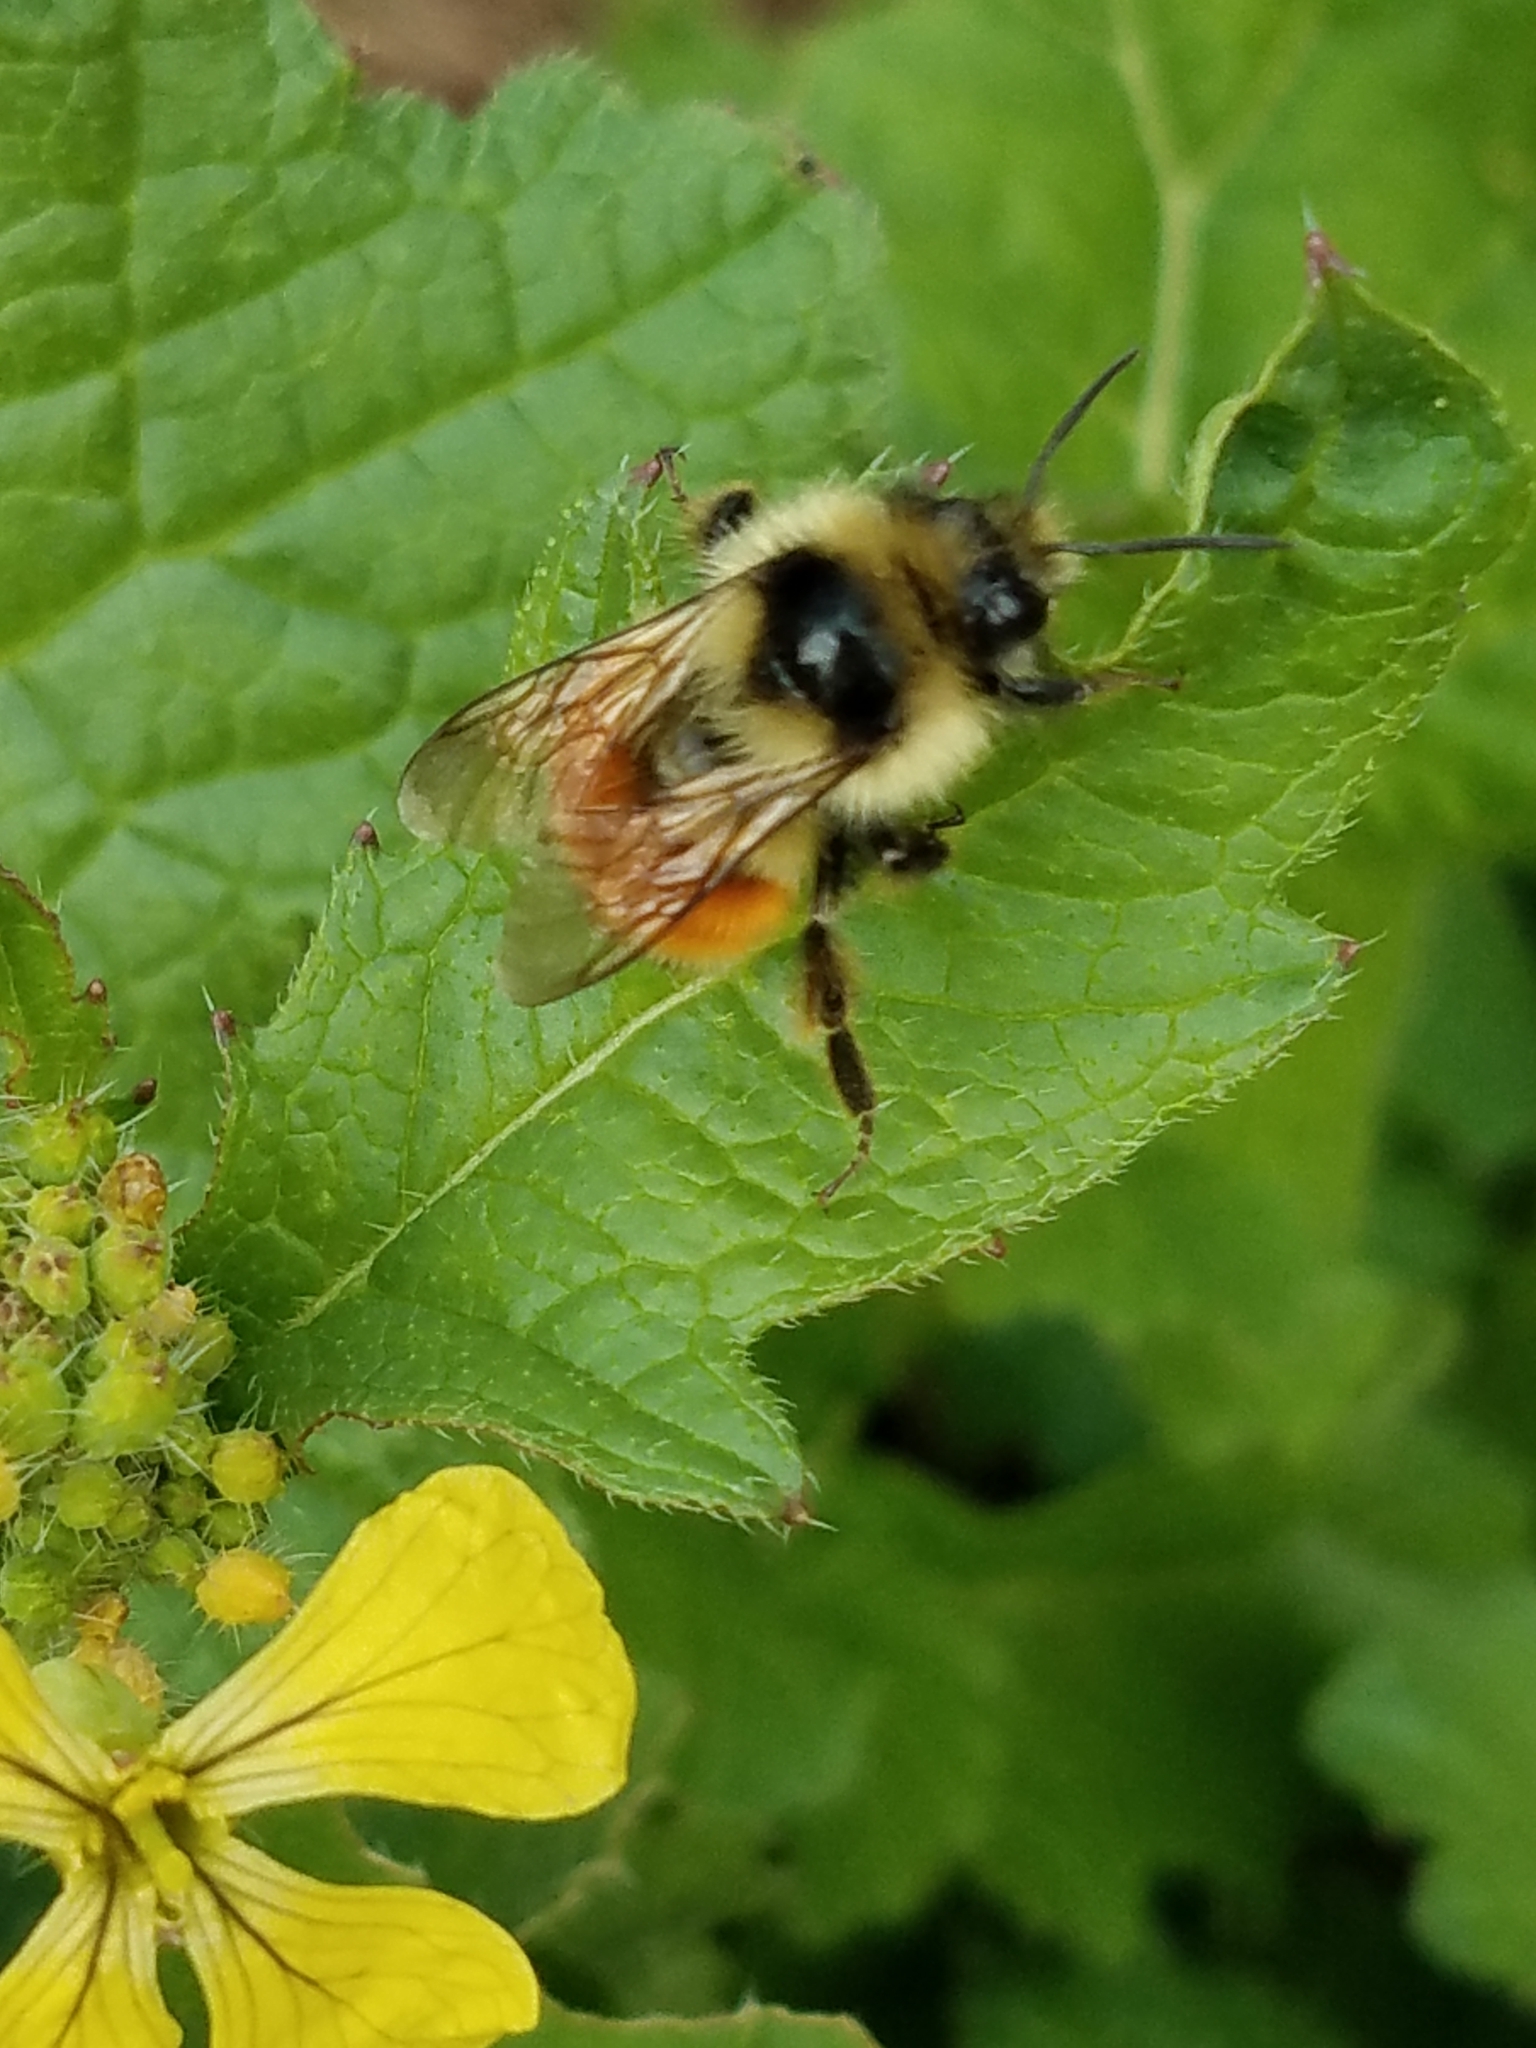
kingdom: Animalia
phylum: Arthropoda
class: Insecta
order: Hymenoptera
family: Apidae
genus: Bombus
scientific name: Bombus ternarius
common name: Tri-colored bumble bee
